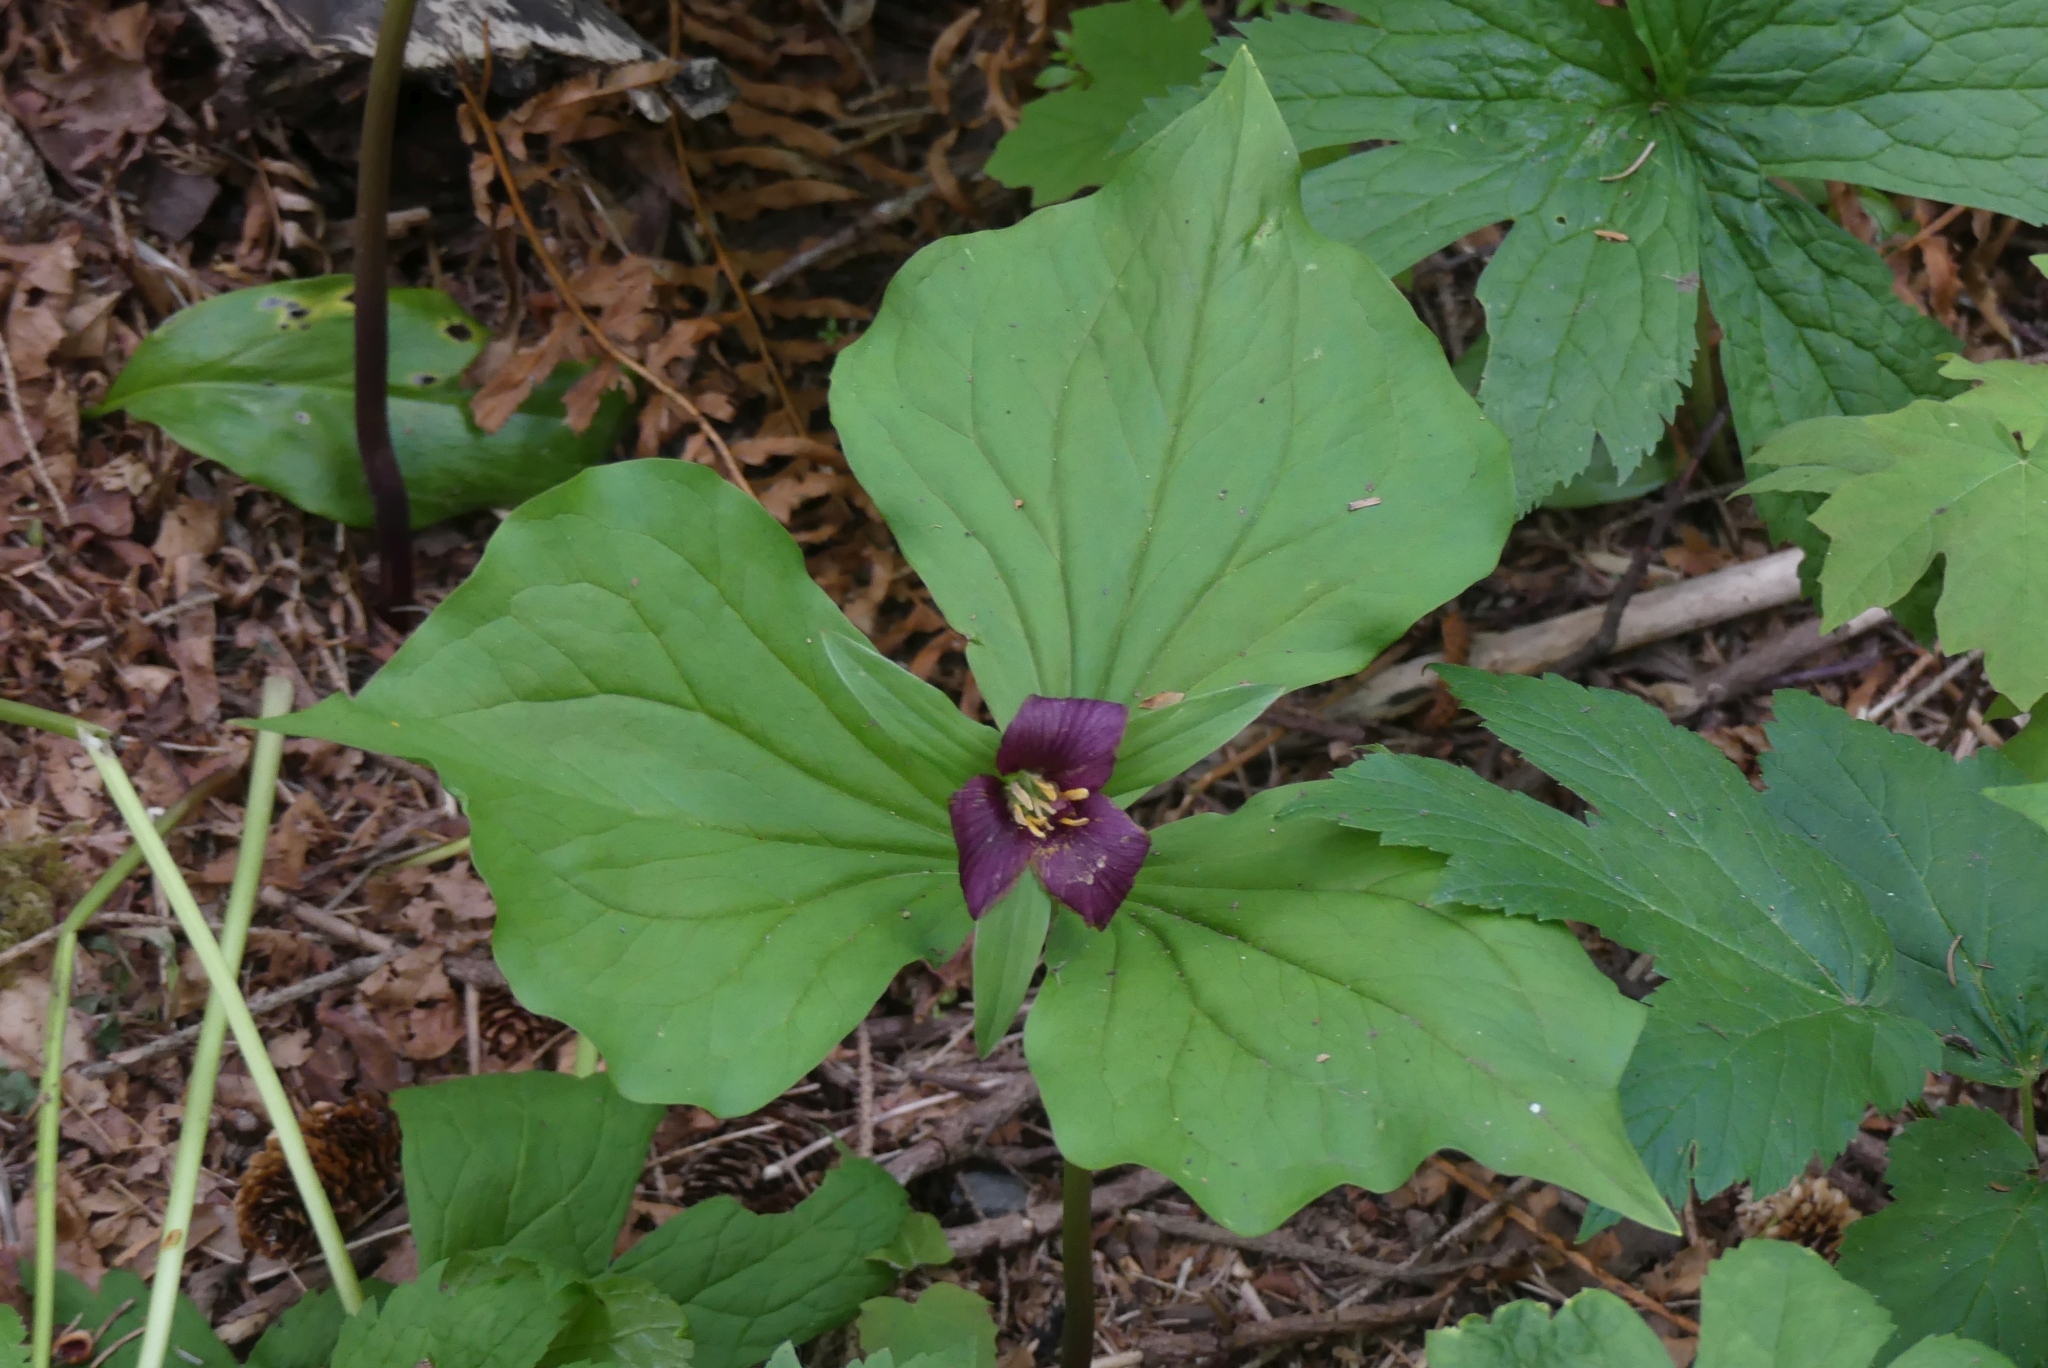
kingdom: Plantae
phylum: Tracheophyta
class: Liliopsida
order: Liliales
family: Melanthiaceae
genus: Trillium
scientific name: Trillium ovatum
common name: Pacific trillium
